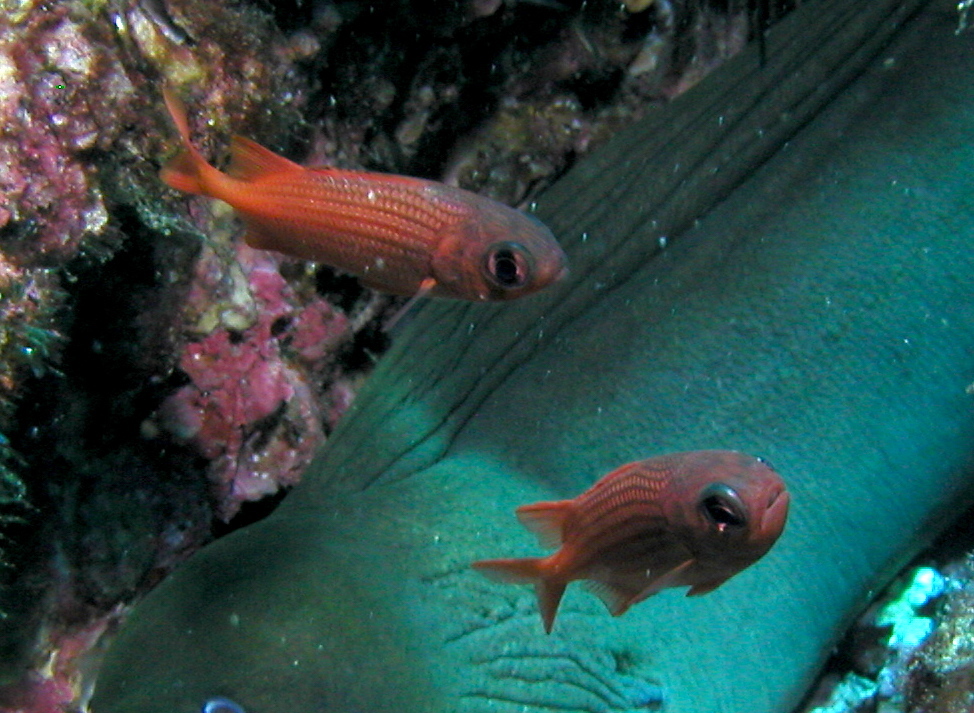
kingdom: Animalia
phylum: Chordata
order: Beryciformes
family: Holocentridae
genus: Myripristis
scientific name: Myripristis leiognathus
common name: Panamic soldierfish
